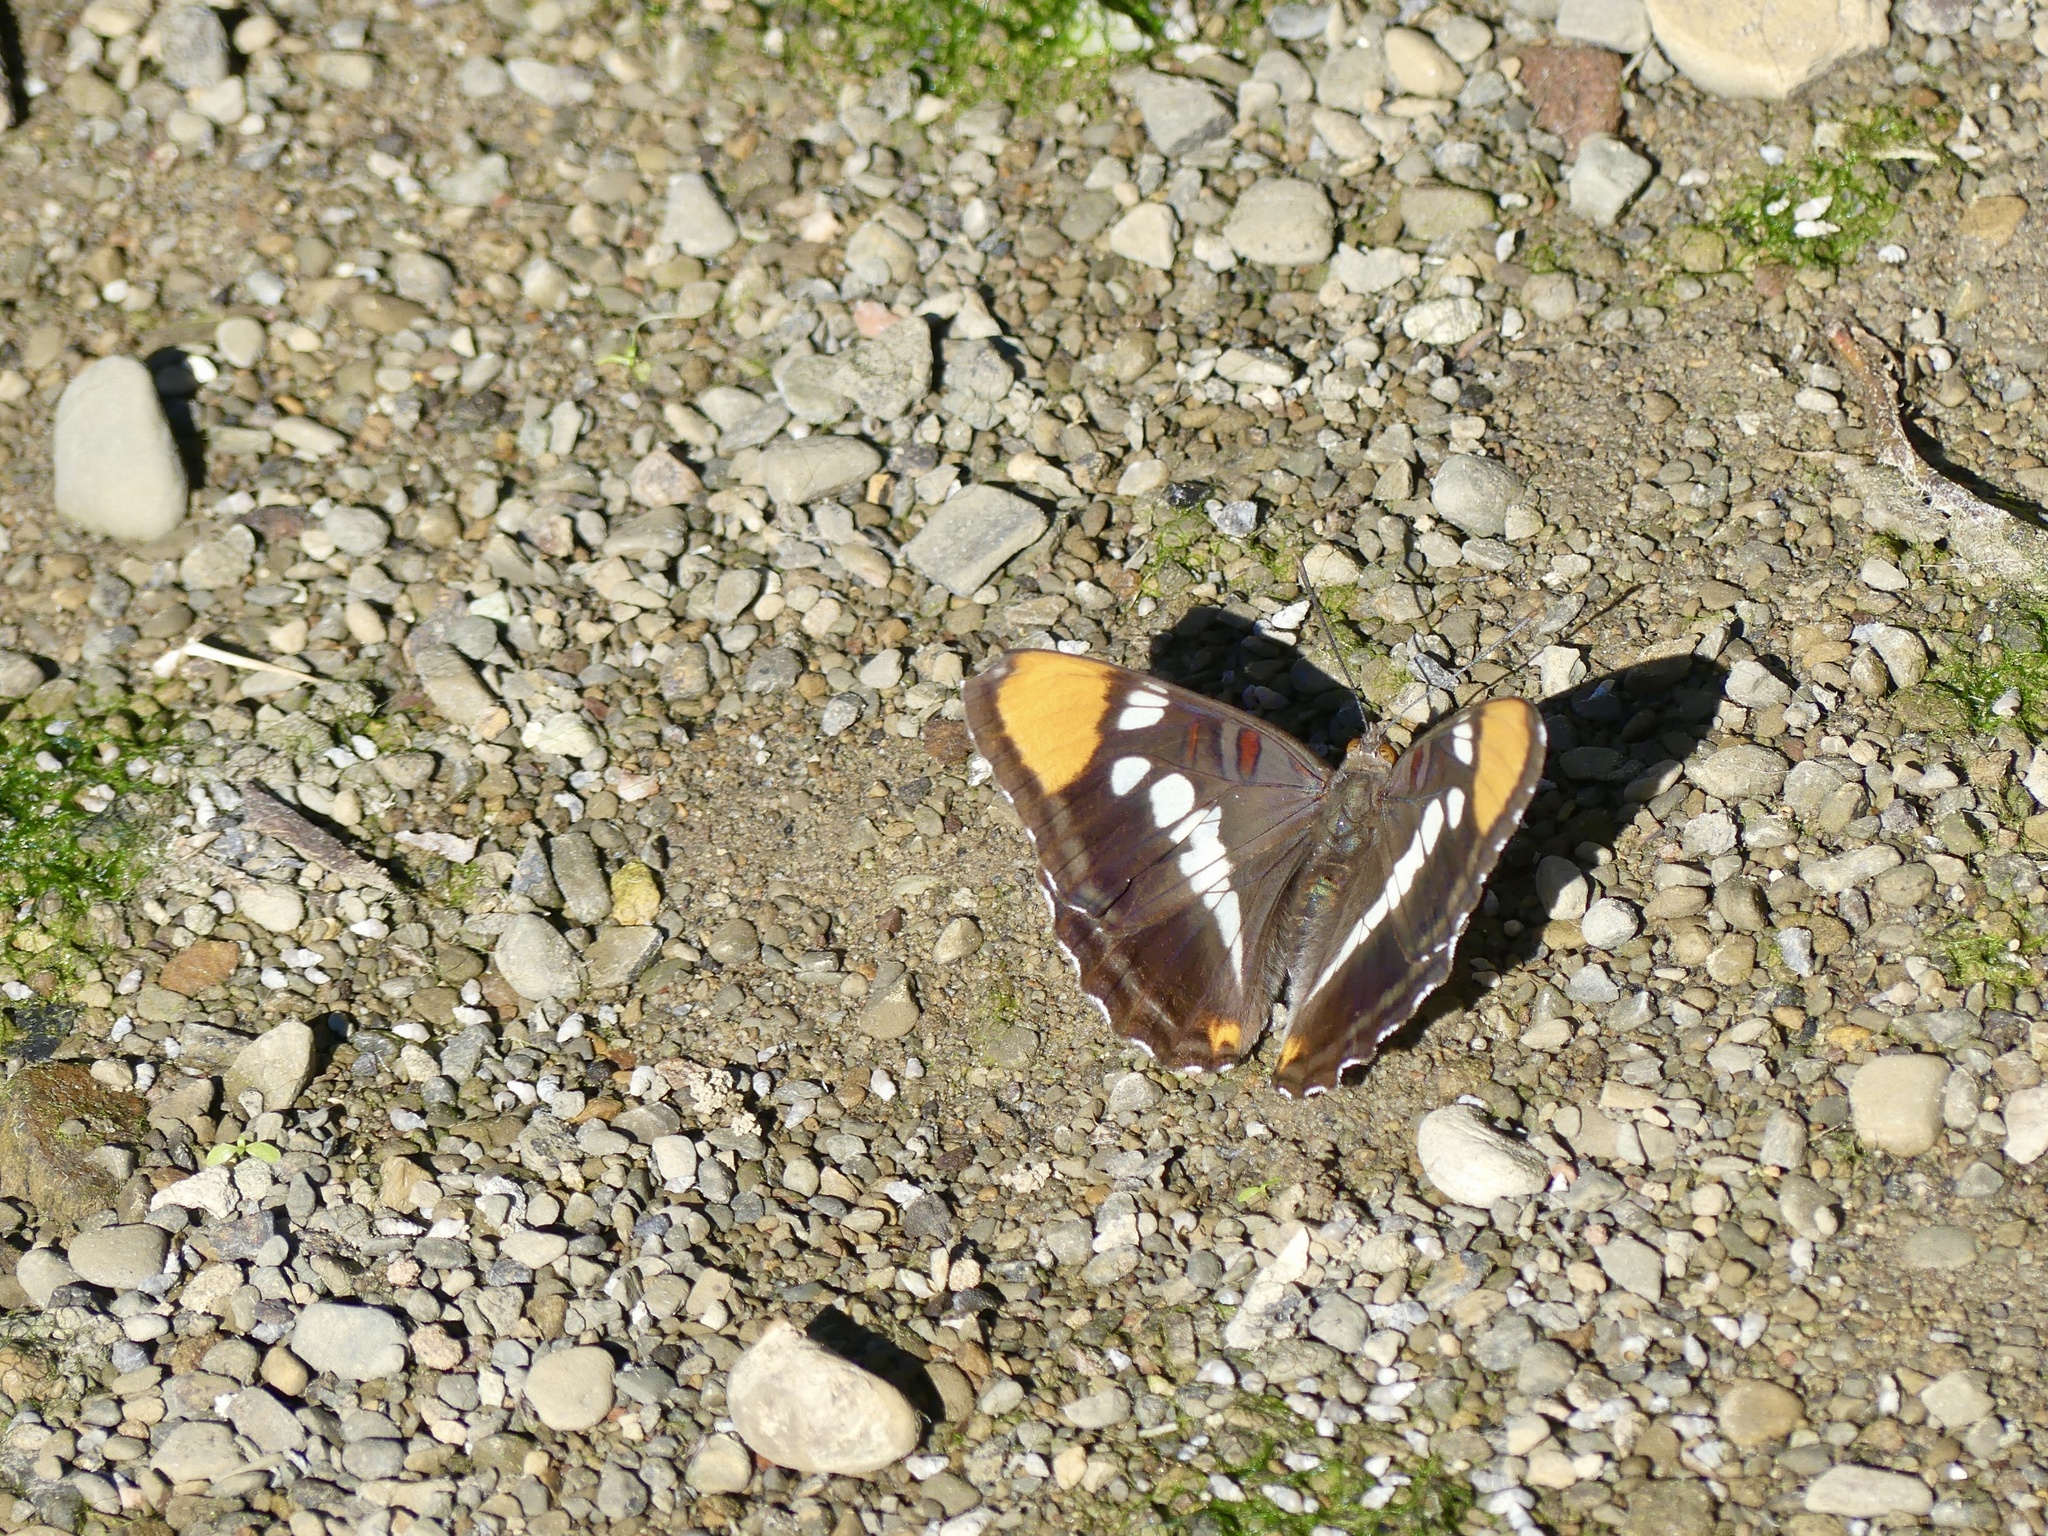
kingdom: Animalia
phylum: Arthropoda
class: Insecta
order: Lepidoptera
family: Nymphalidae
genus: Limenitis
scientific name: Limenitis bredowii
